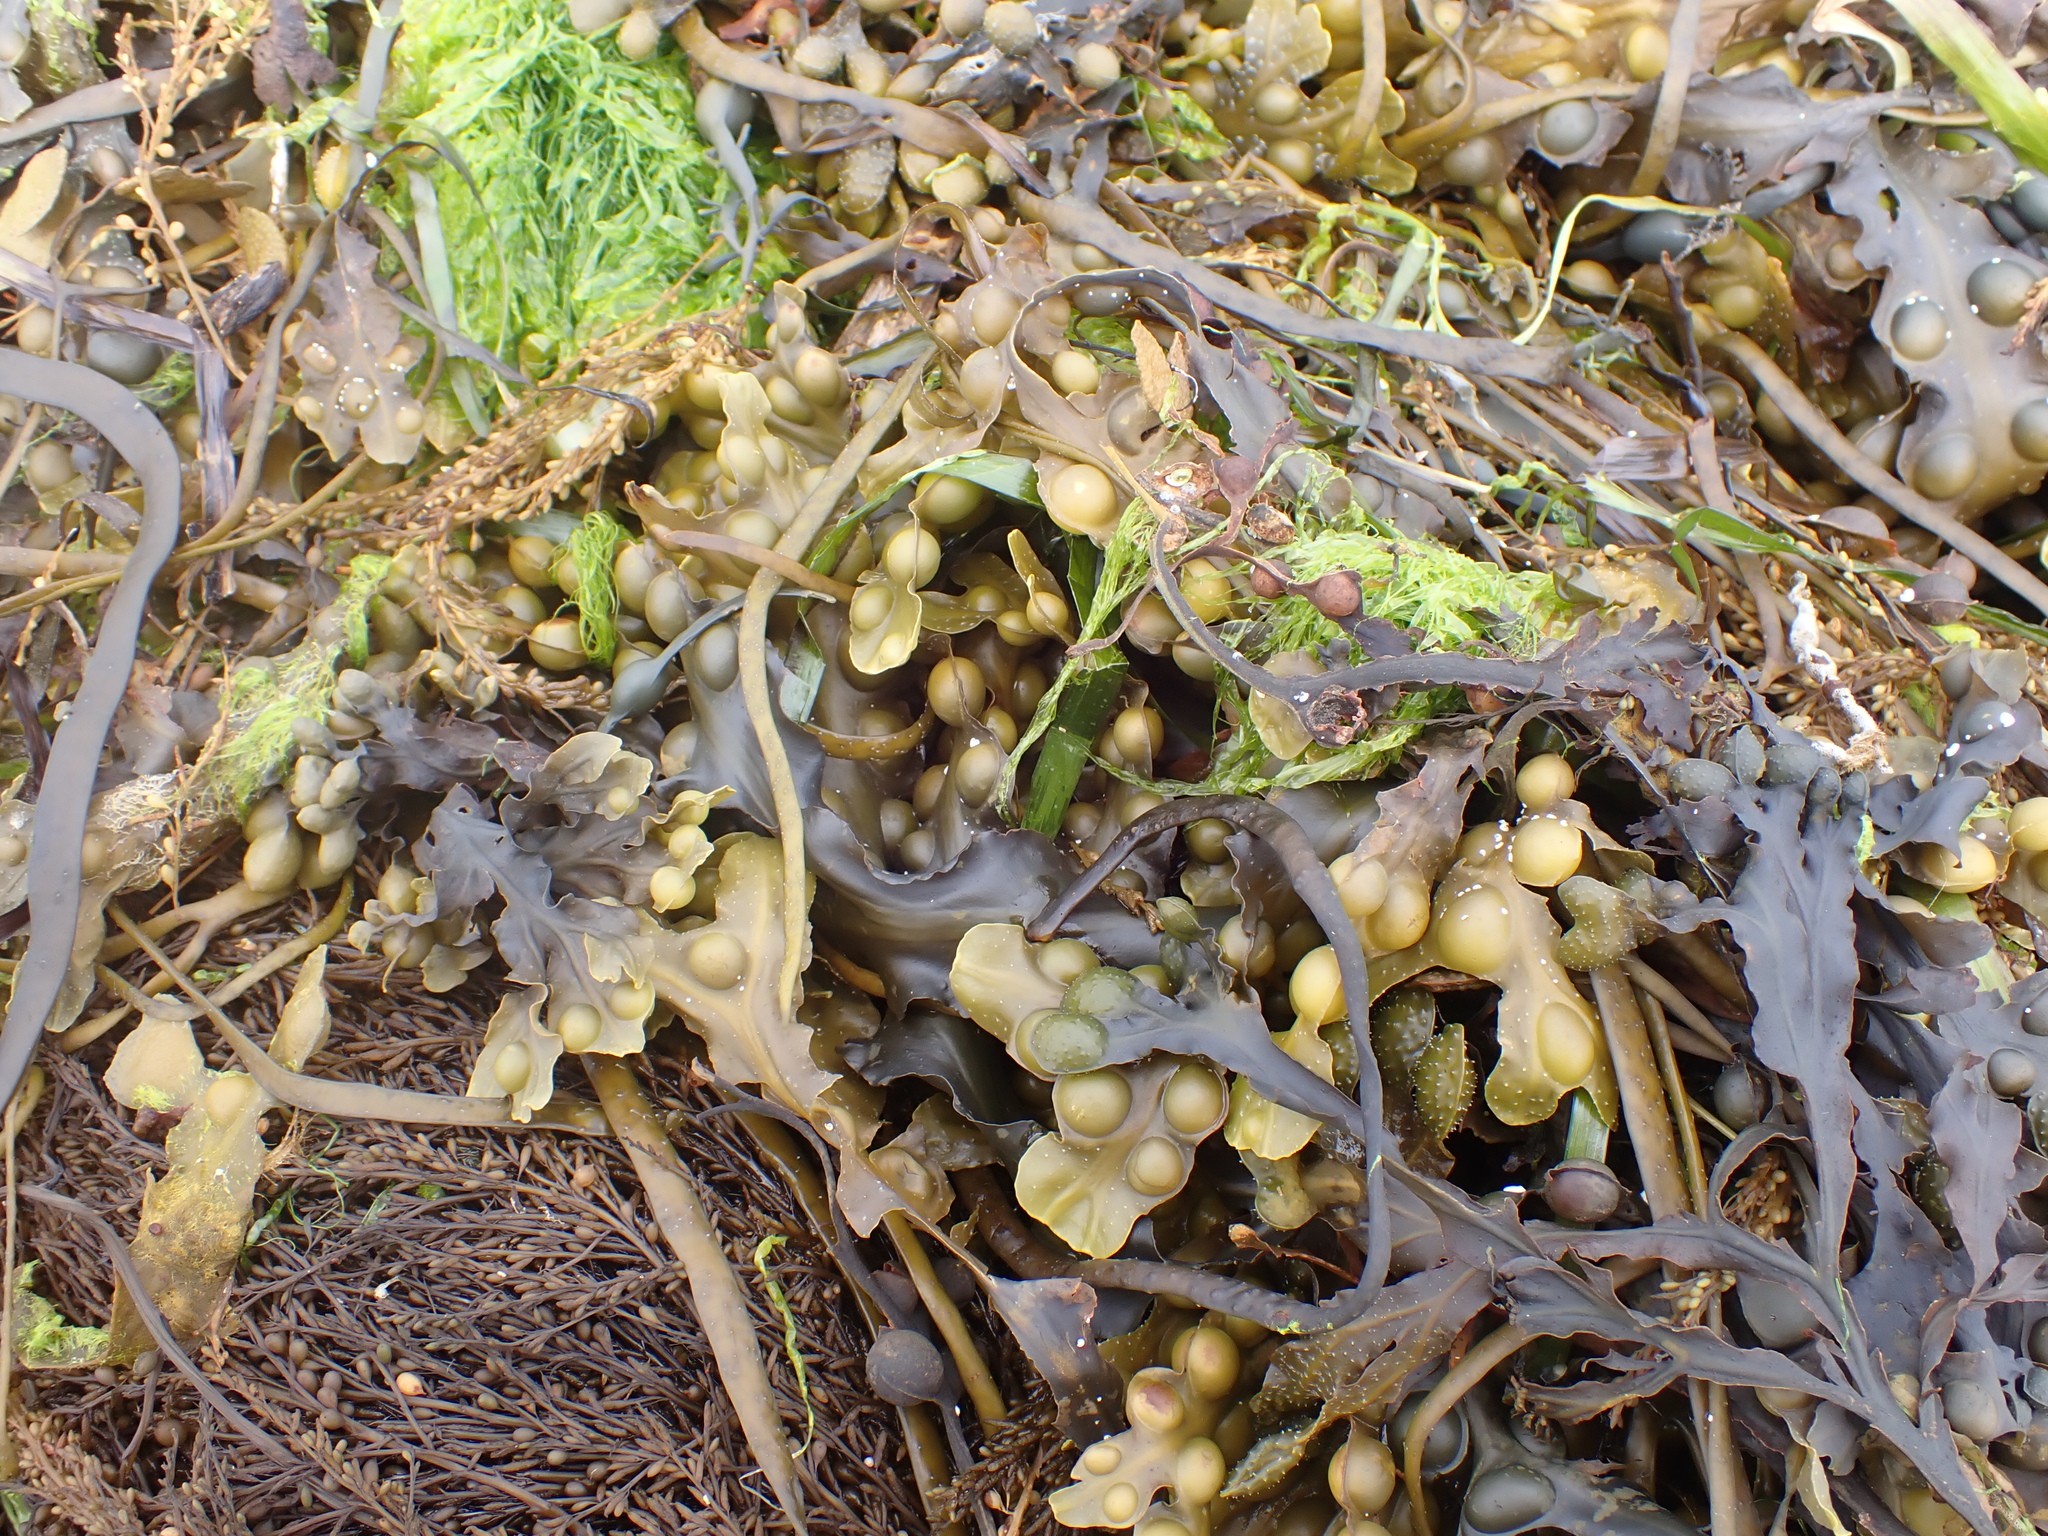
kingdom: Chromista
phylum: Ochrophyta
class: Phaeophyceae
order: Fucales
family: Fucaceae
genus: Fucus
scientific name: Fucus vesiculosus
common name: Bladder wrack
